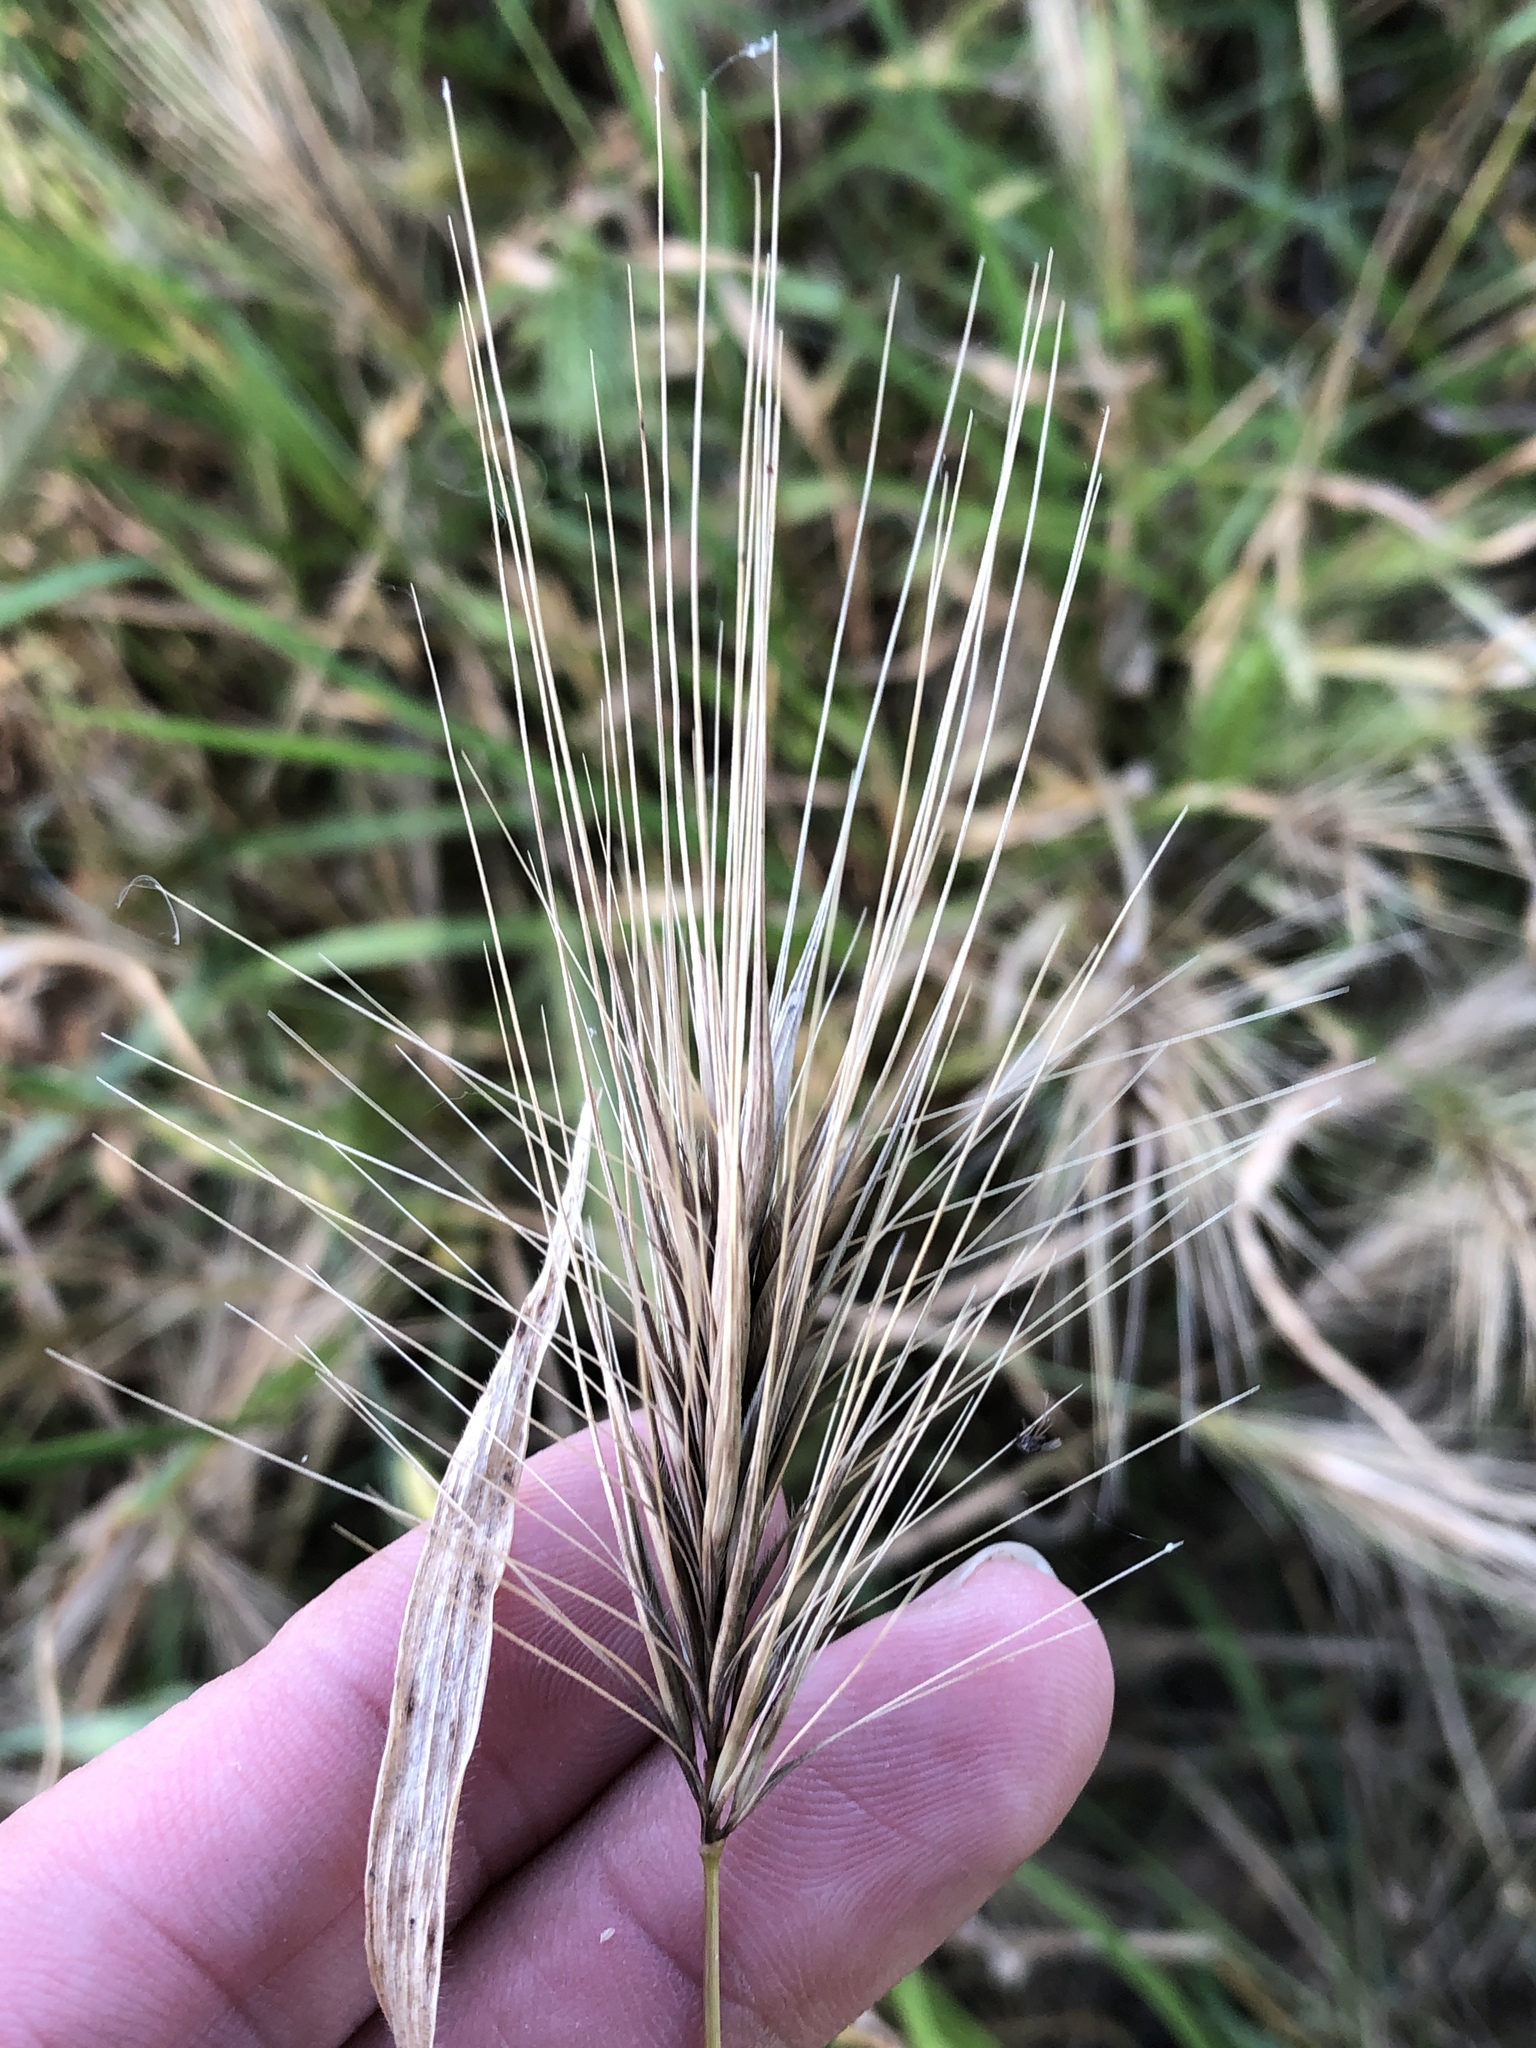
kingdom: Plantae
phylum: Tracheophyta
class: Liliopsida
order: Poales
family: Poaceae
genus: Hordeum
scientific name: Hordeum murinum
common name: Wall barley
